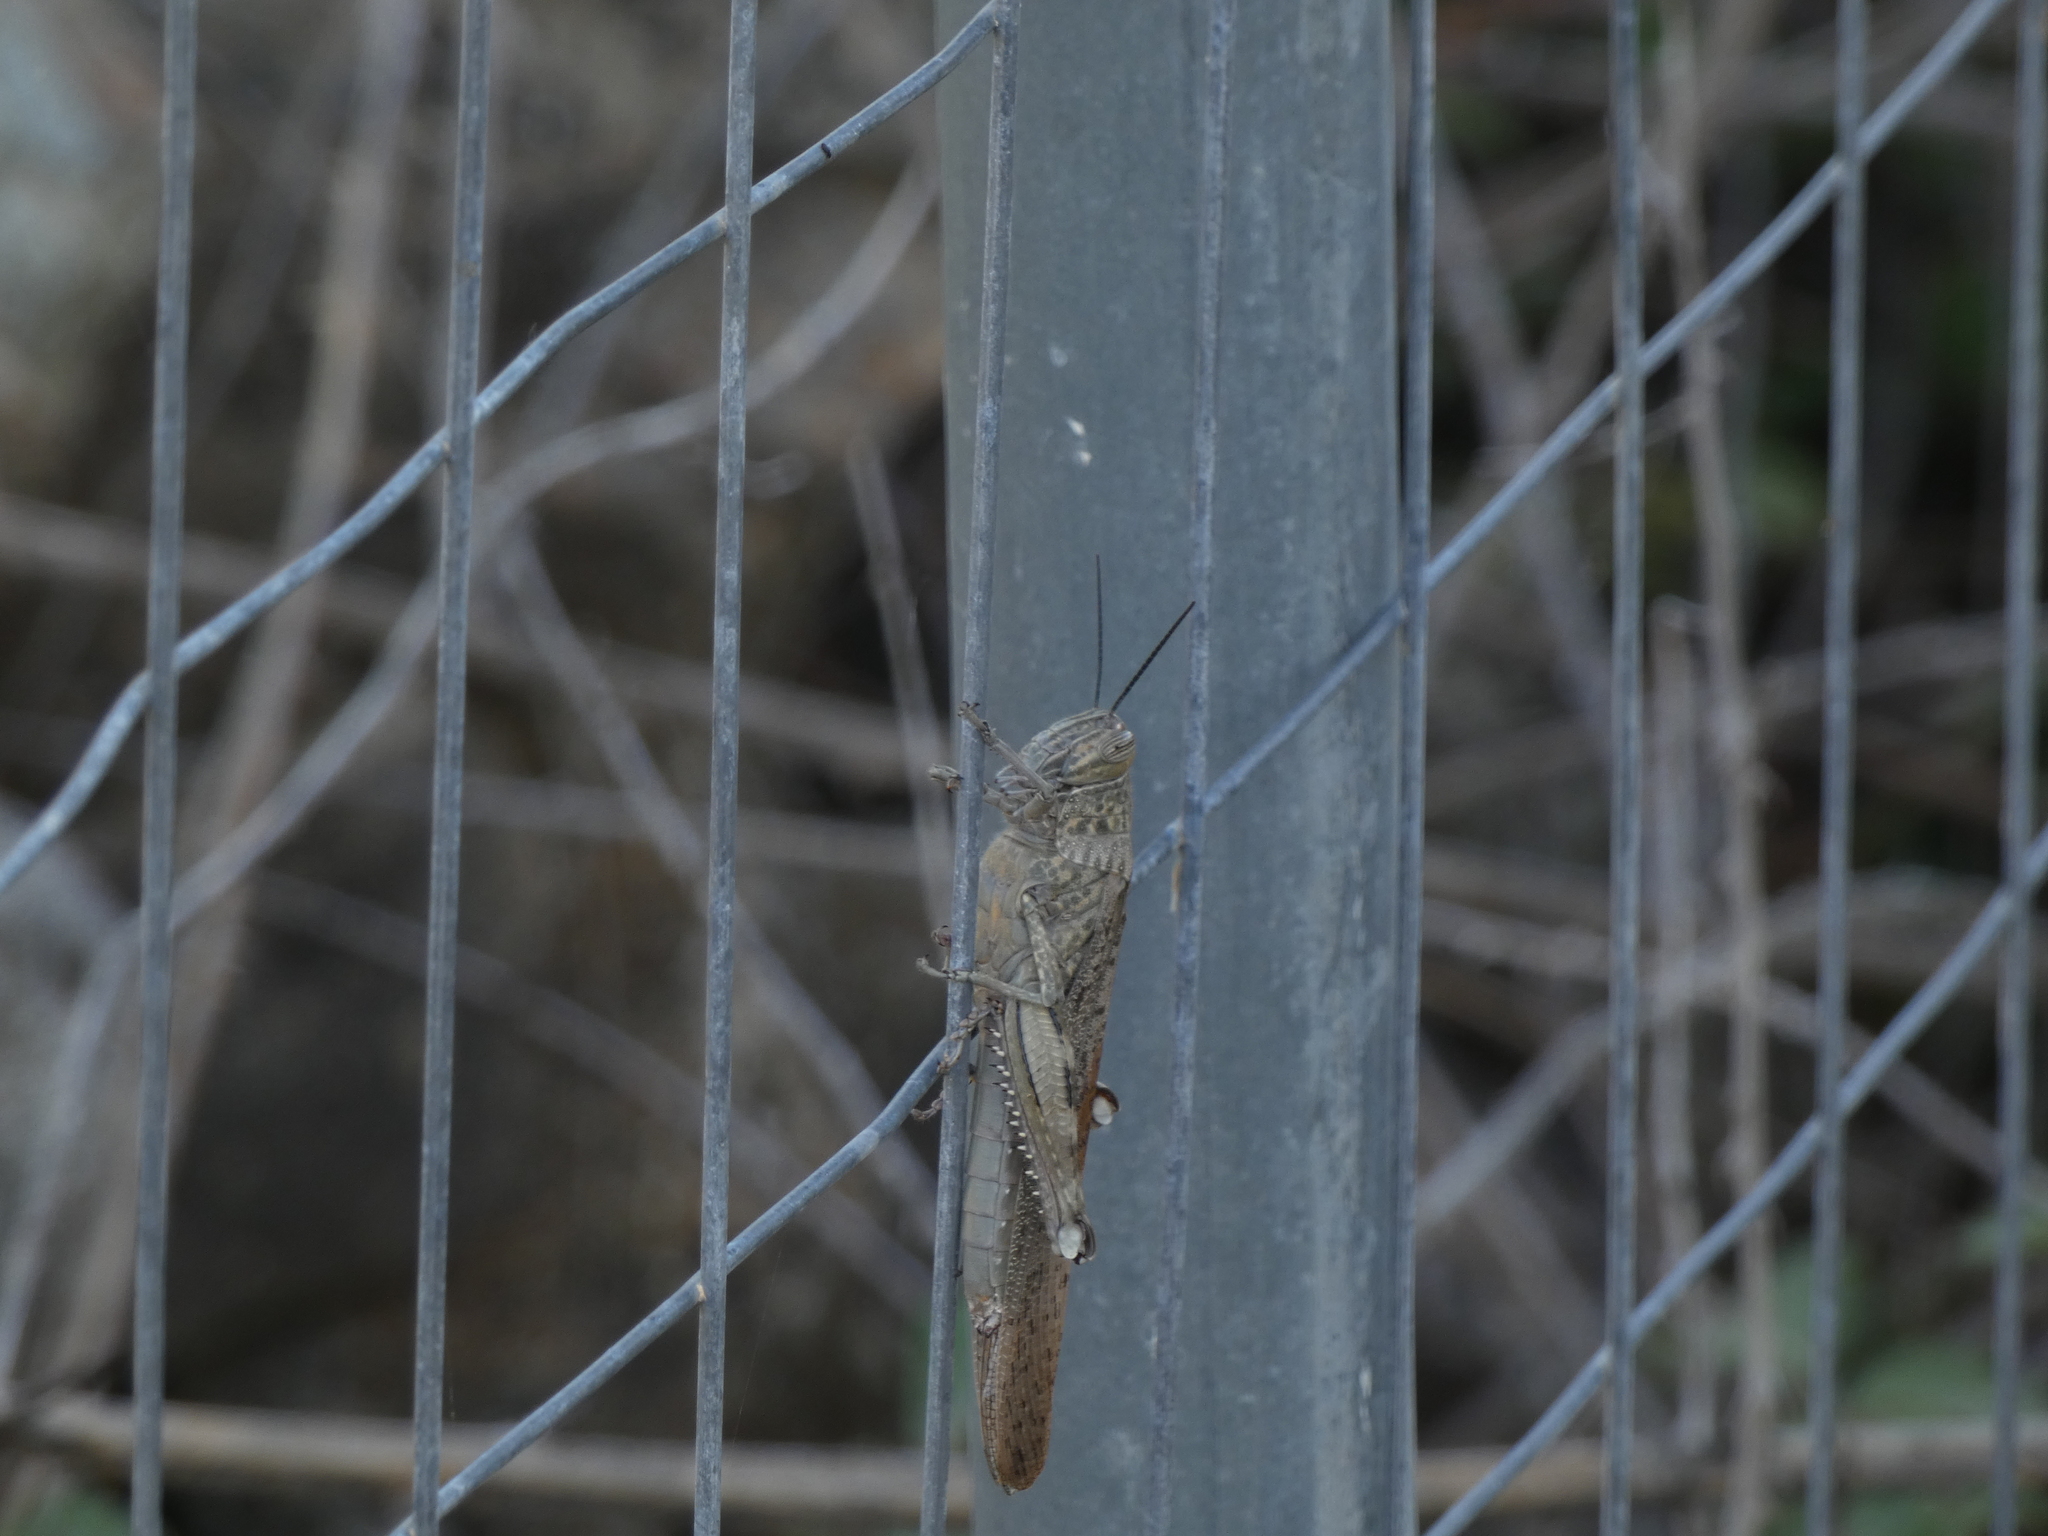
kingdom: Animalia
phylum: Arthropoda
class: Insecta
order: Orthoptera
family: Acrididae
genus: Anacridium
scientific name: Anacridium aegyptium
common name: Egyptian grasshopper
